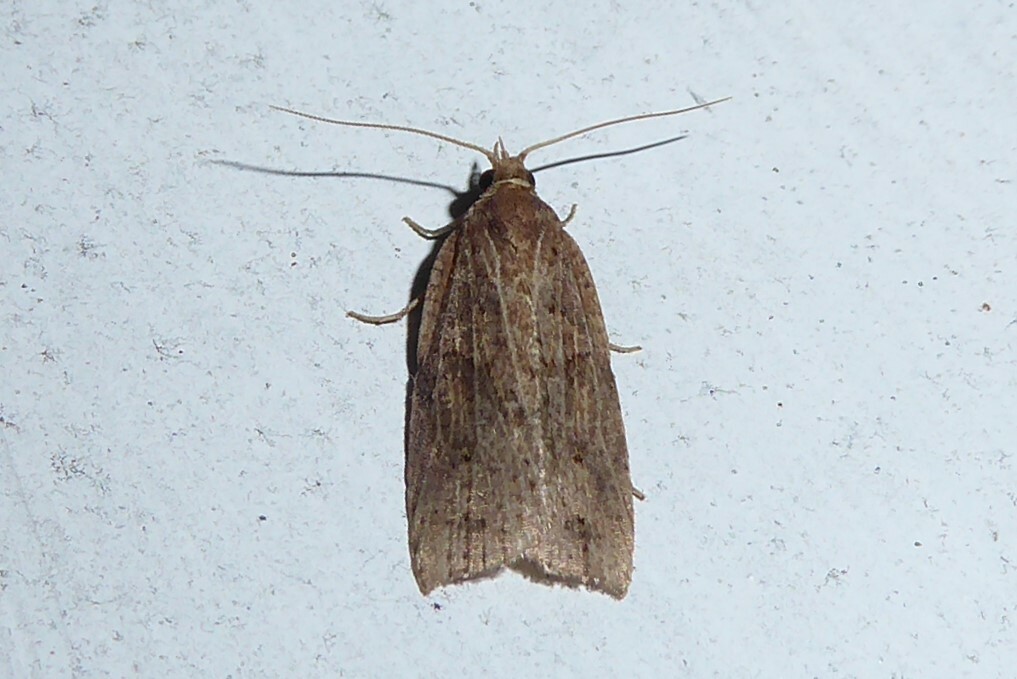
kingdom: Animalia
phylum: Arthropoda
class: Insecta
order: Lepidoptera
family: Tortricidae
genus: Planotortrix
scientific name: Planotortrix notophaea
